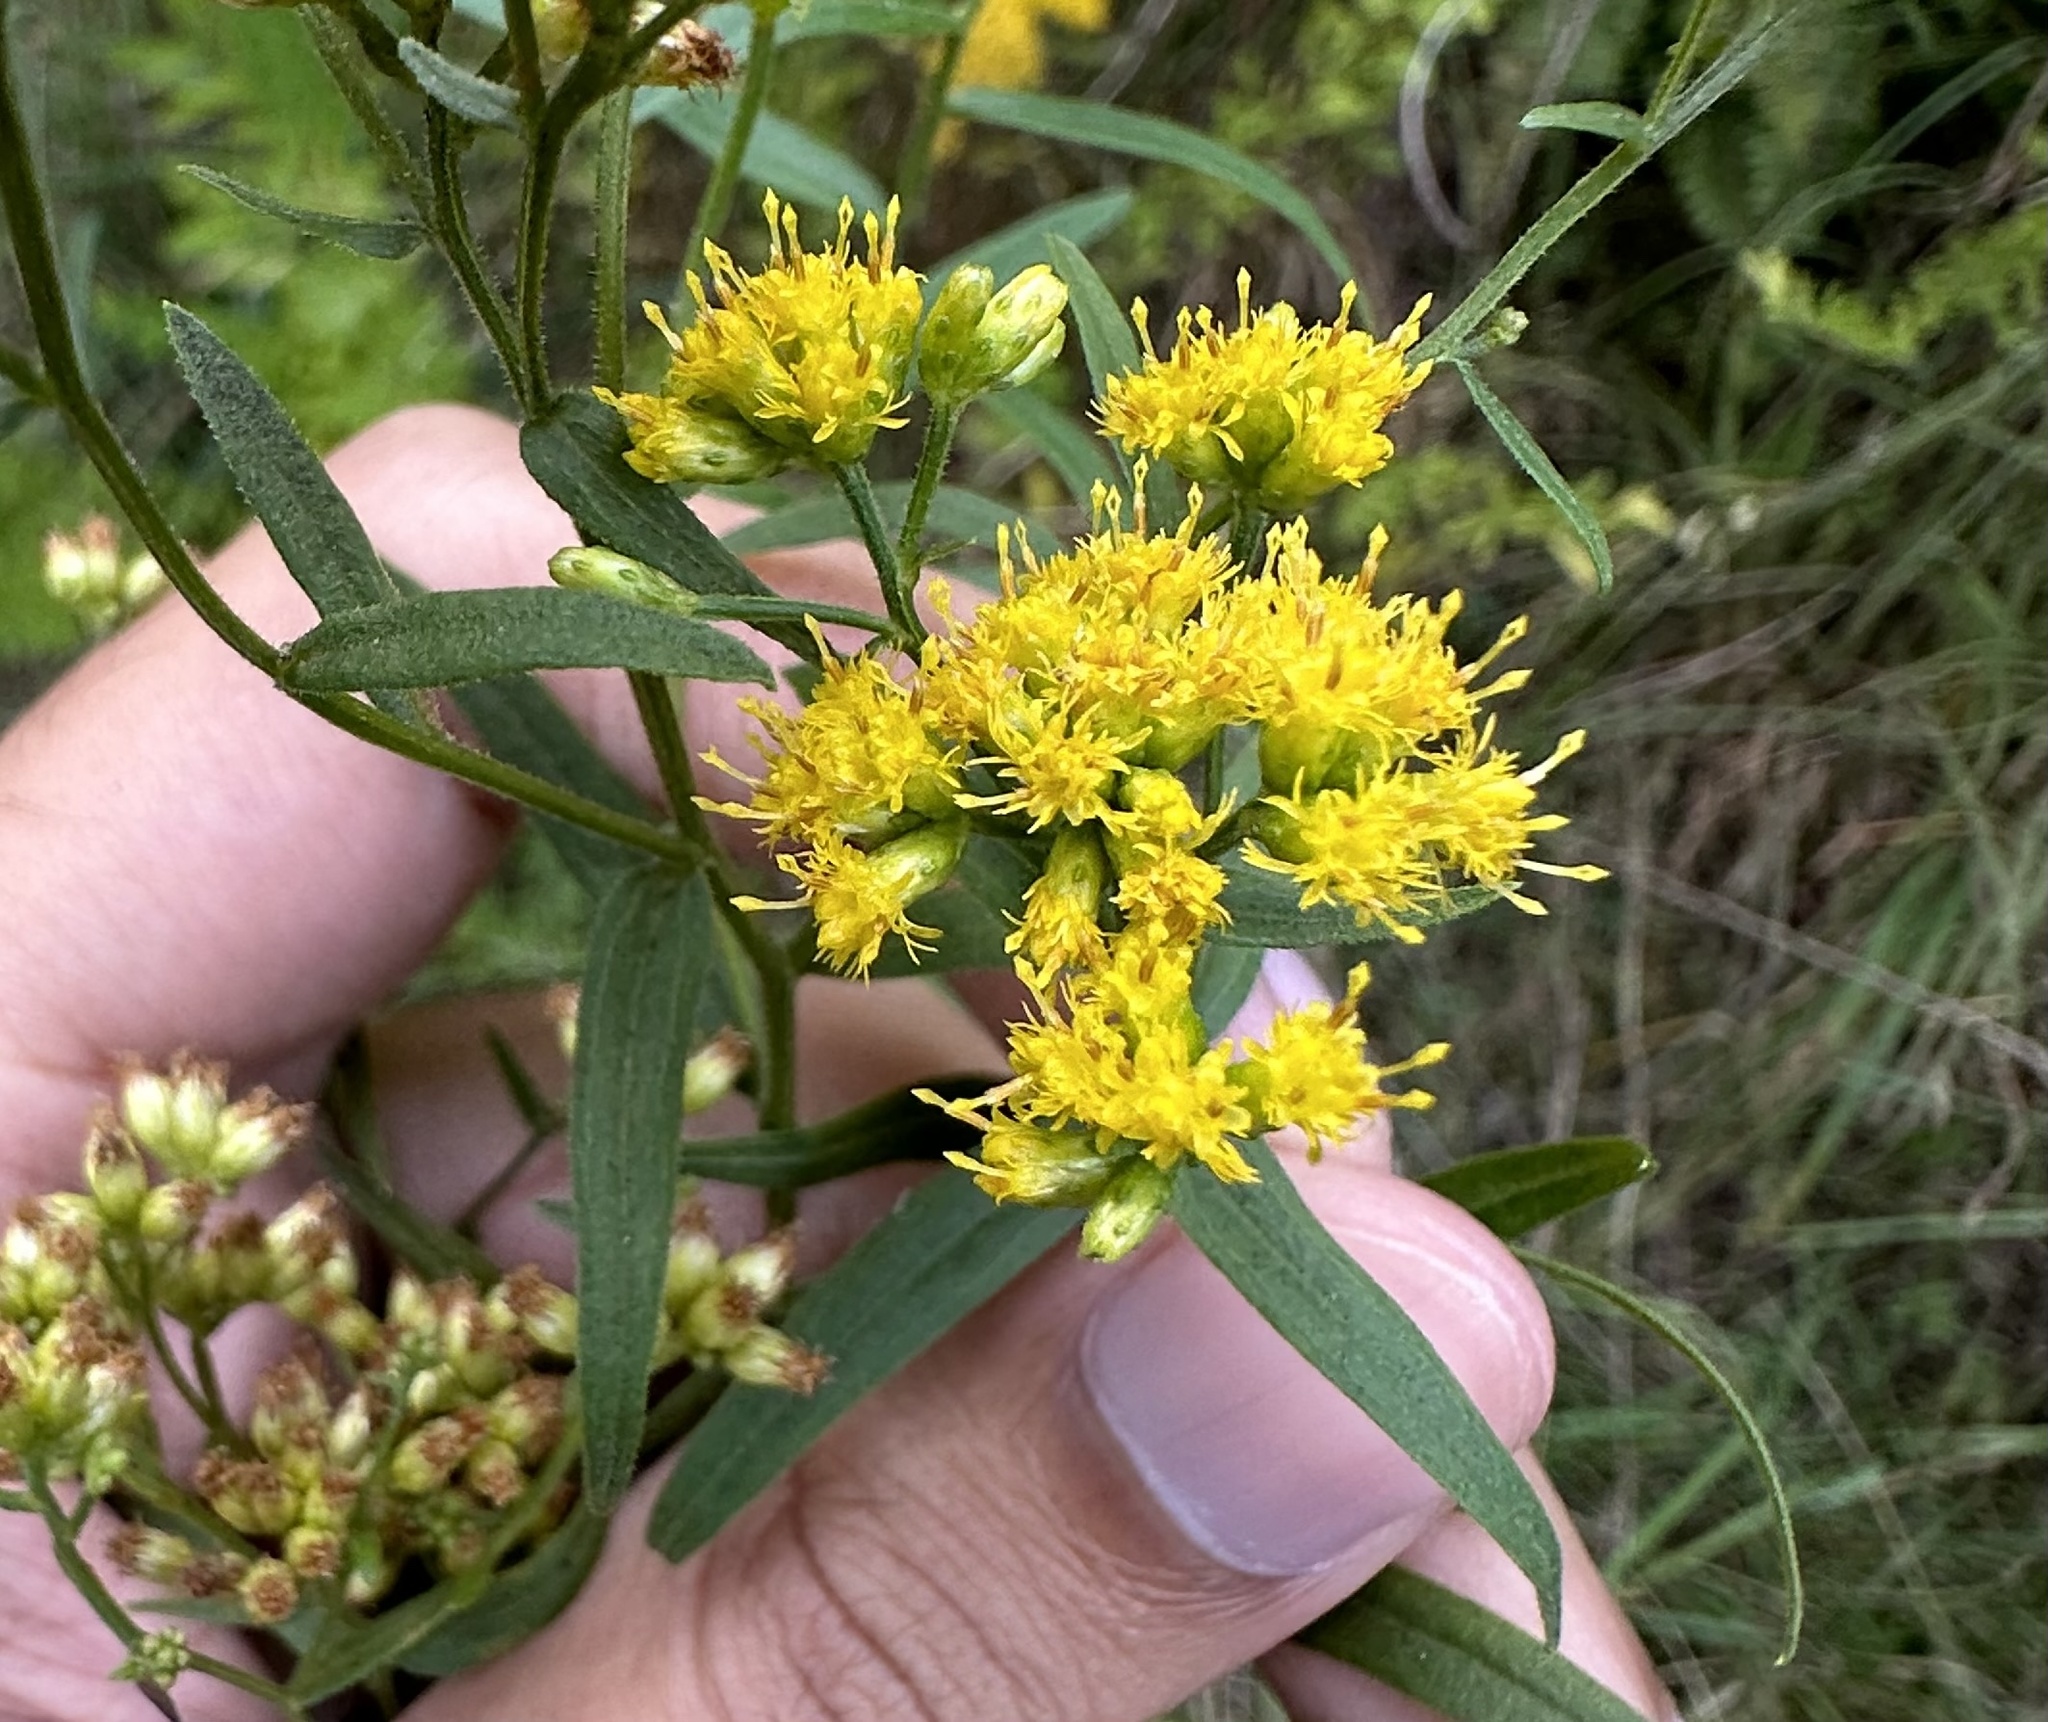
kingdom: Plantae
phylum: Tracheophyta
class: Magnoliopsida
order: Asterales
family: Asteraceae
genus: Euthamia
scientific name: Euthamia graminifolia
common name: Common goldentop
